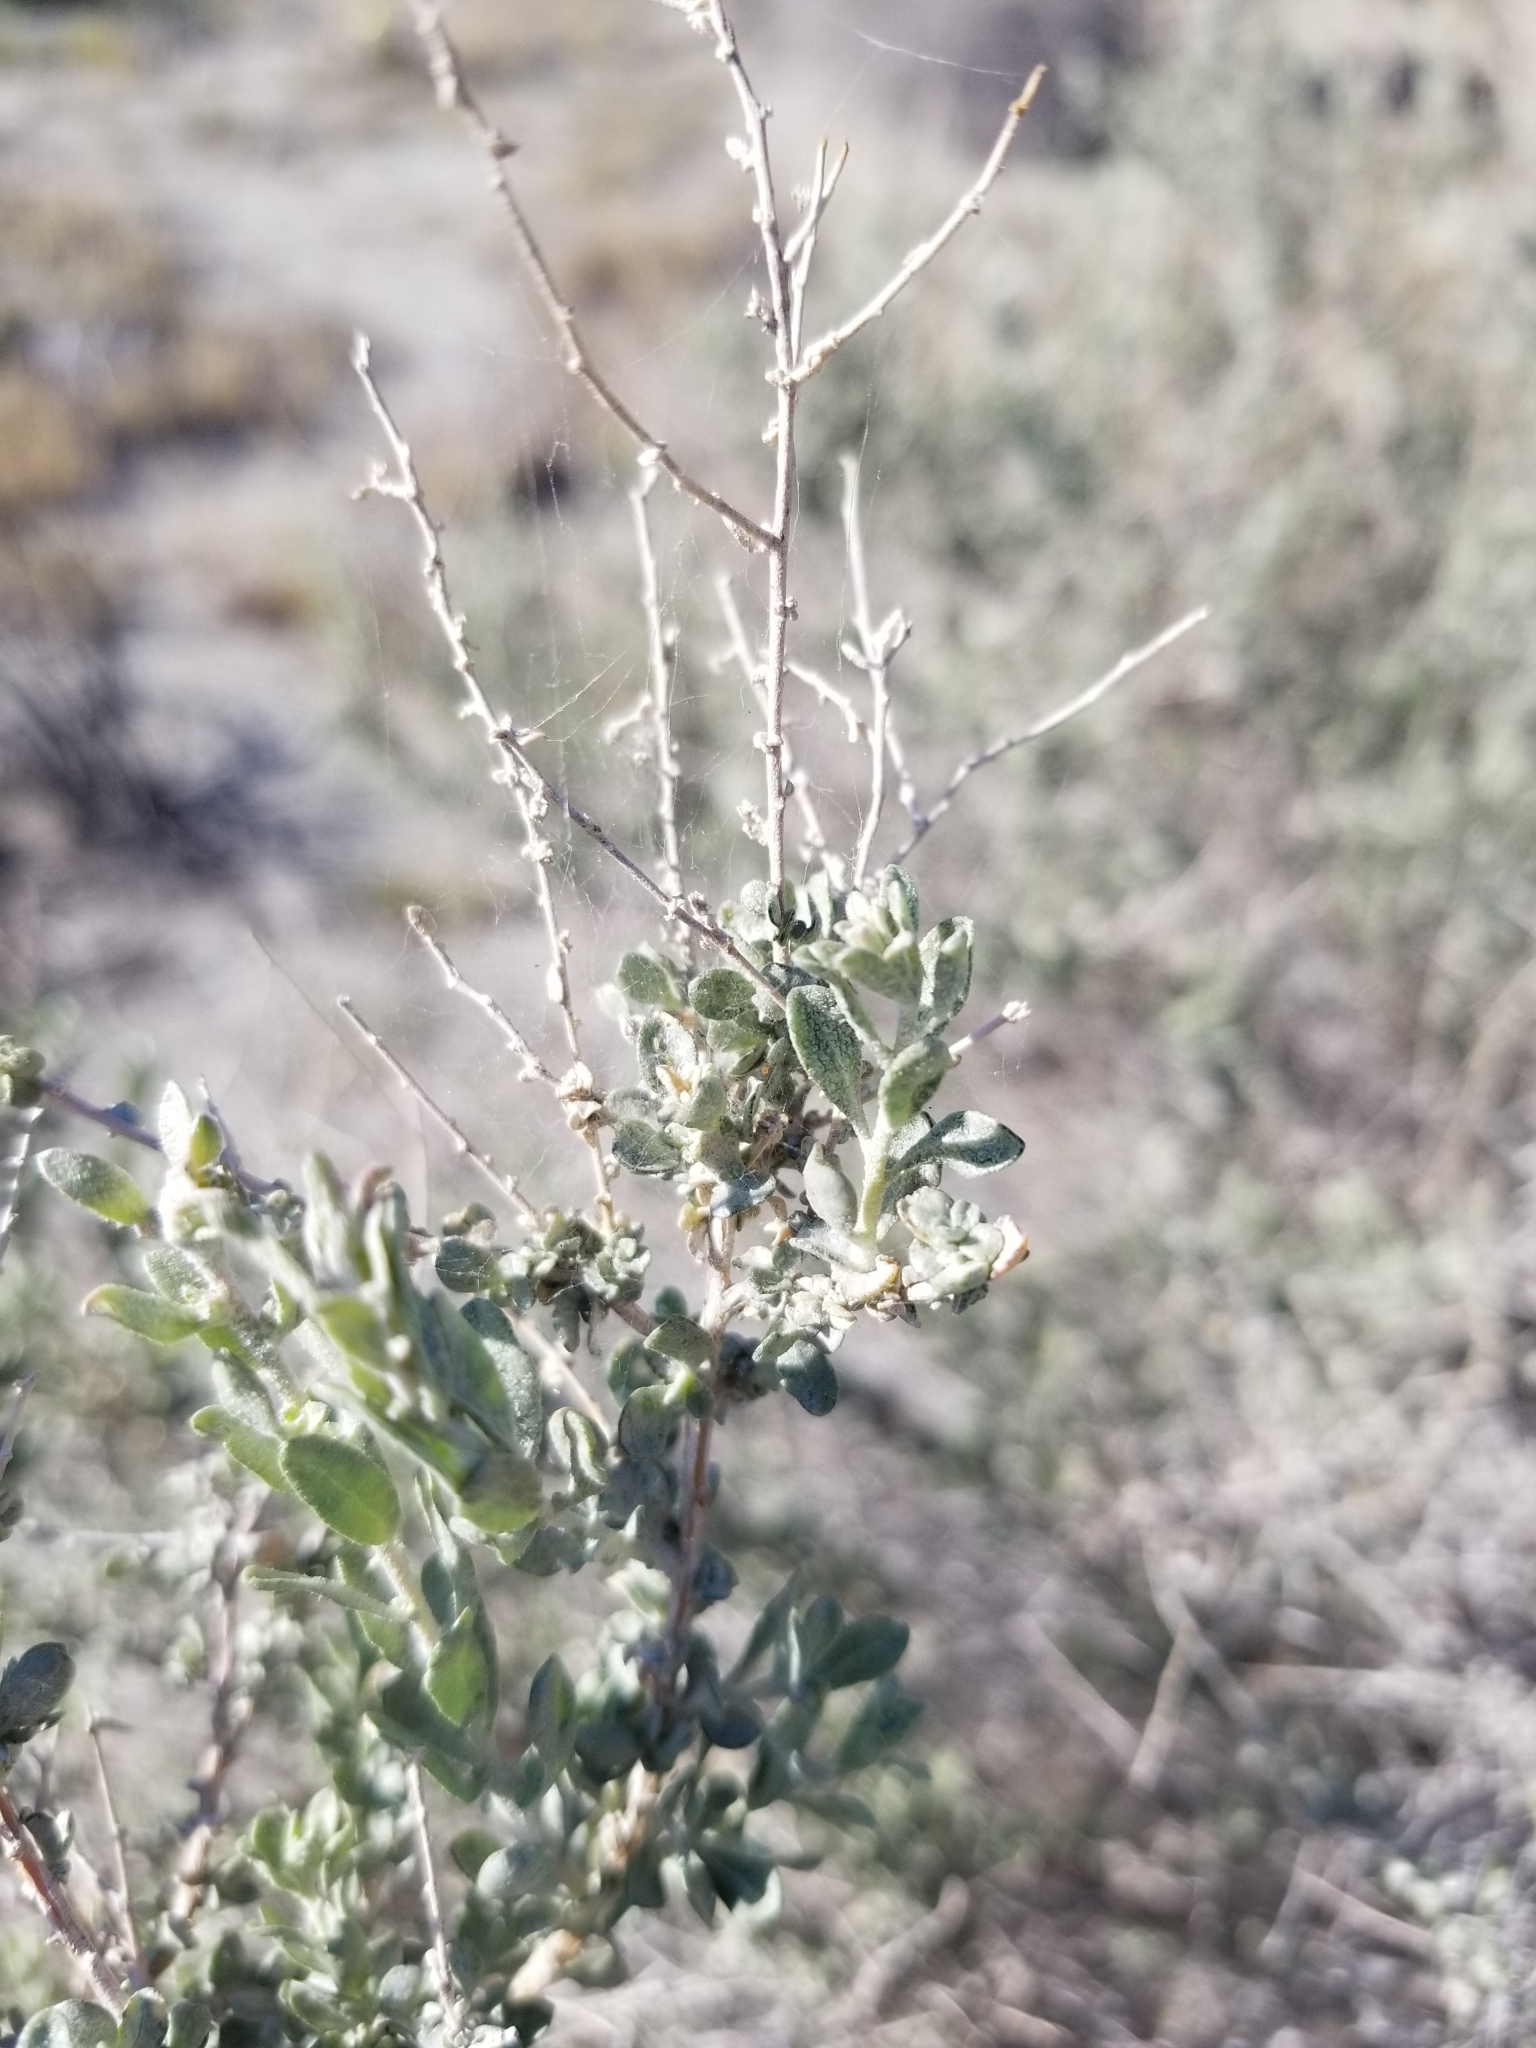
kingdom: Plantae
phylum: Tracheophyta
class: Magnoliopsida
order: Caryophyllales
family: Amaranthaceae
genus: Atriplex
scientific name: Atriplex polycarpa
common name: Desert saltbush
